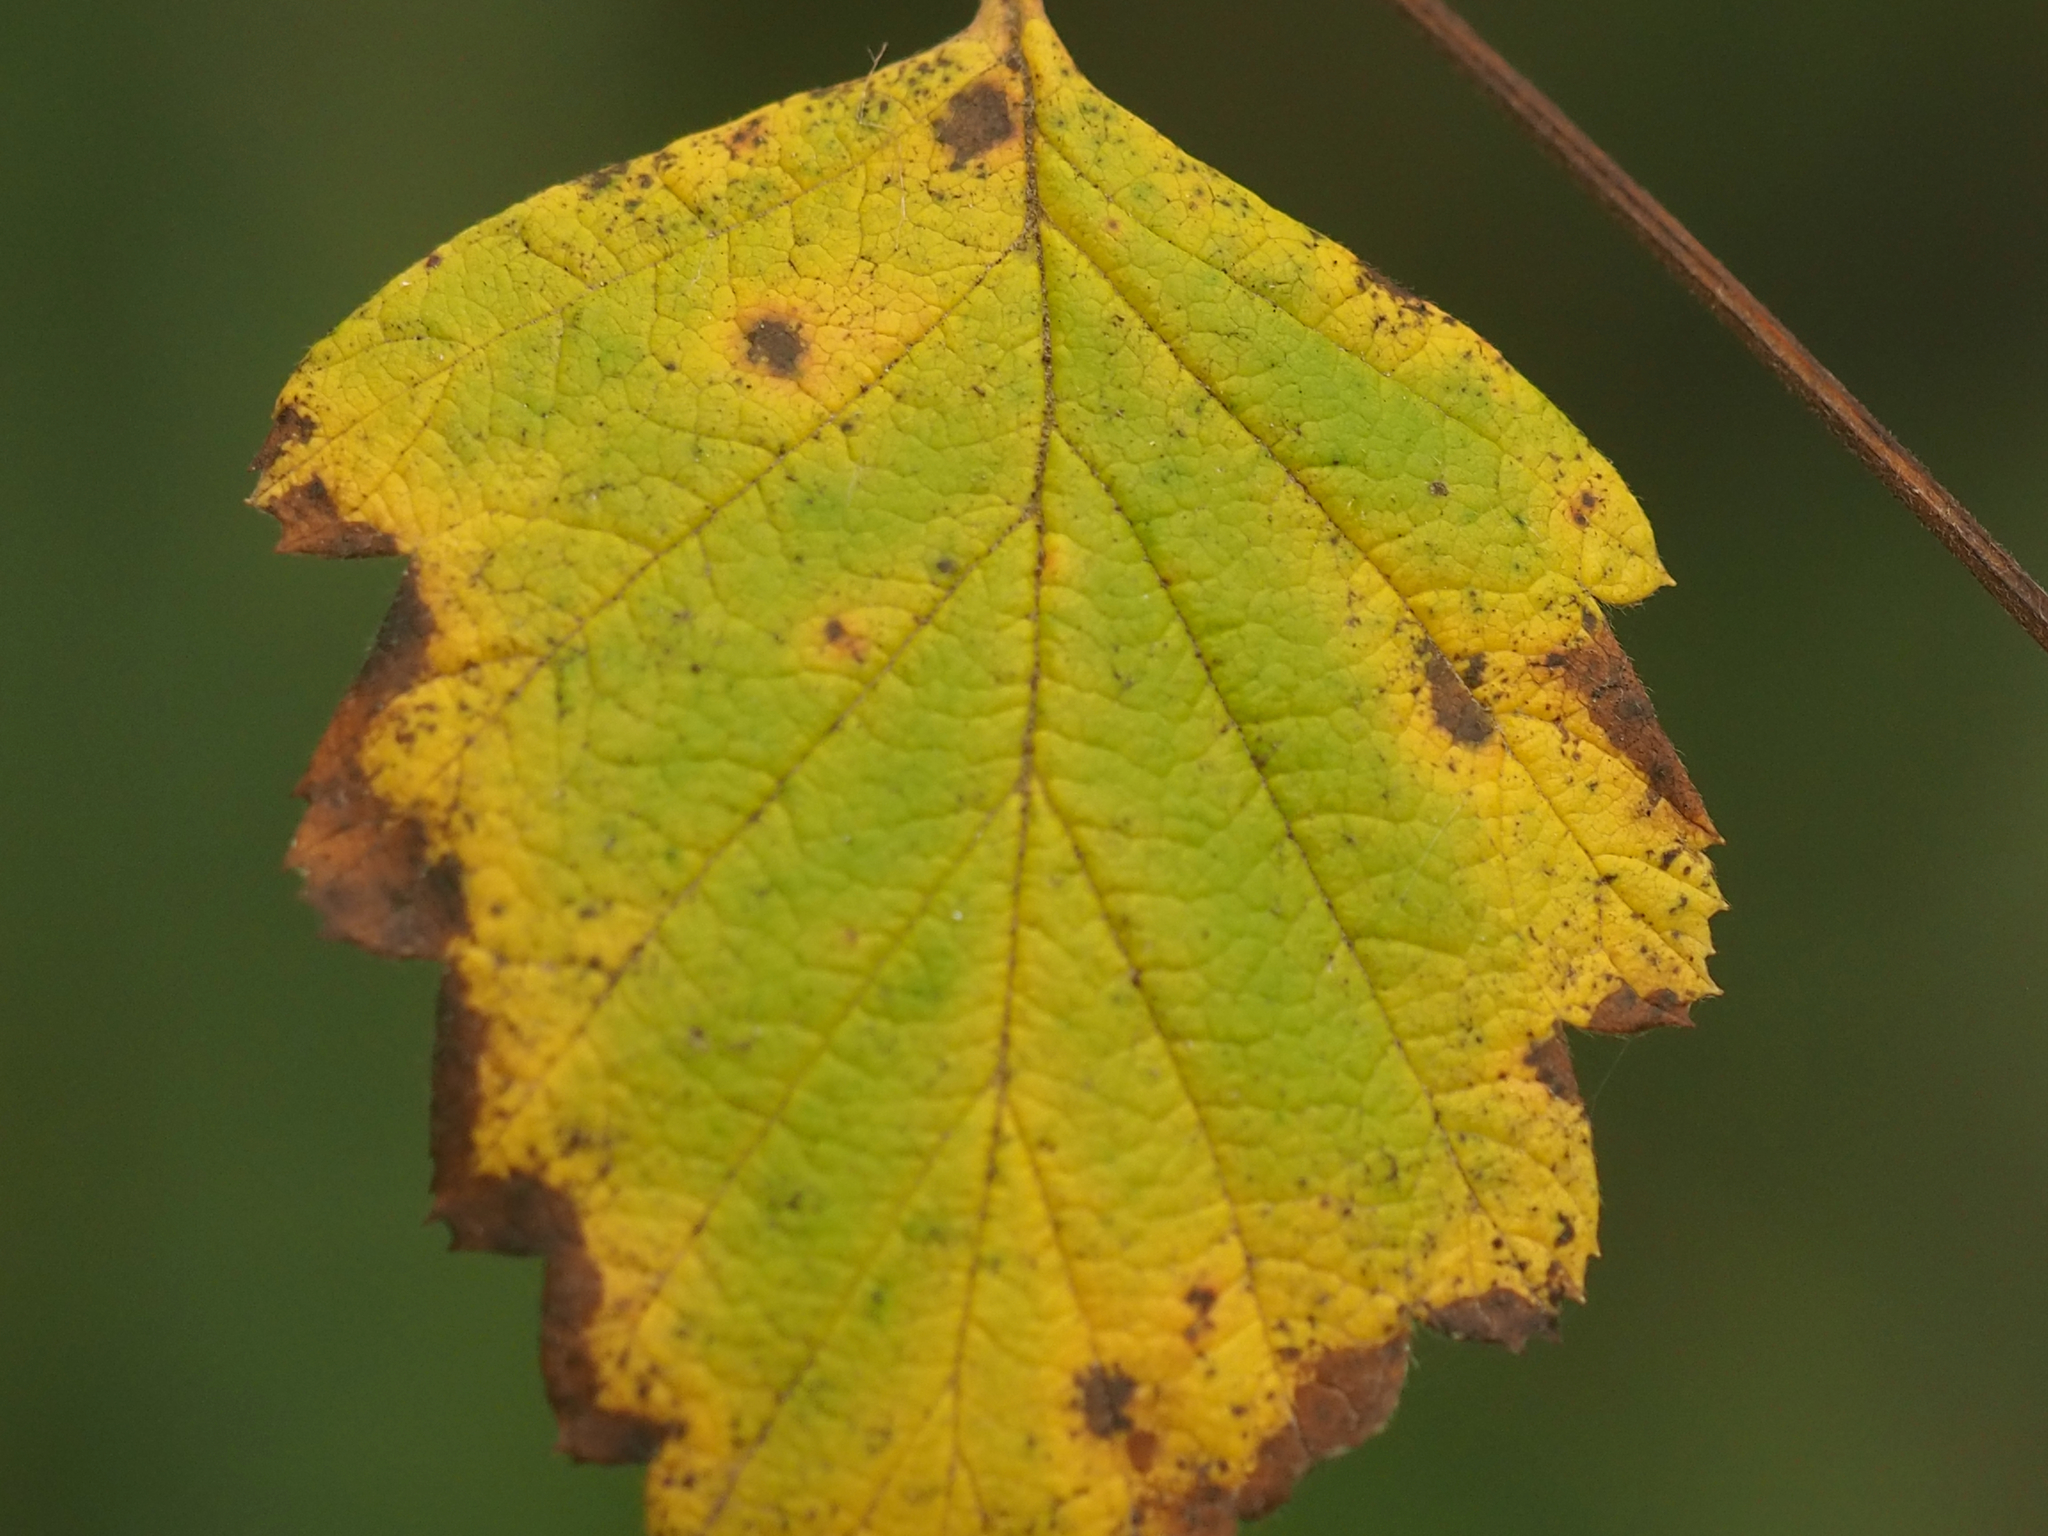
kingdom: Plantae
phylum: Tracheophyta
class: Magnoliopsida
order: Rosales
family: Rosaceae
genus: Holodiscus
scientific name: Holodiscus discolor
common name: Oceanspray
